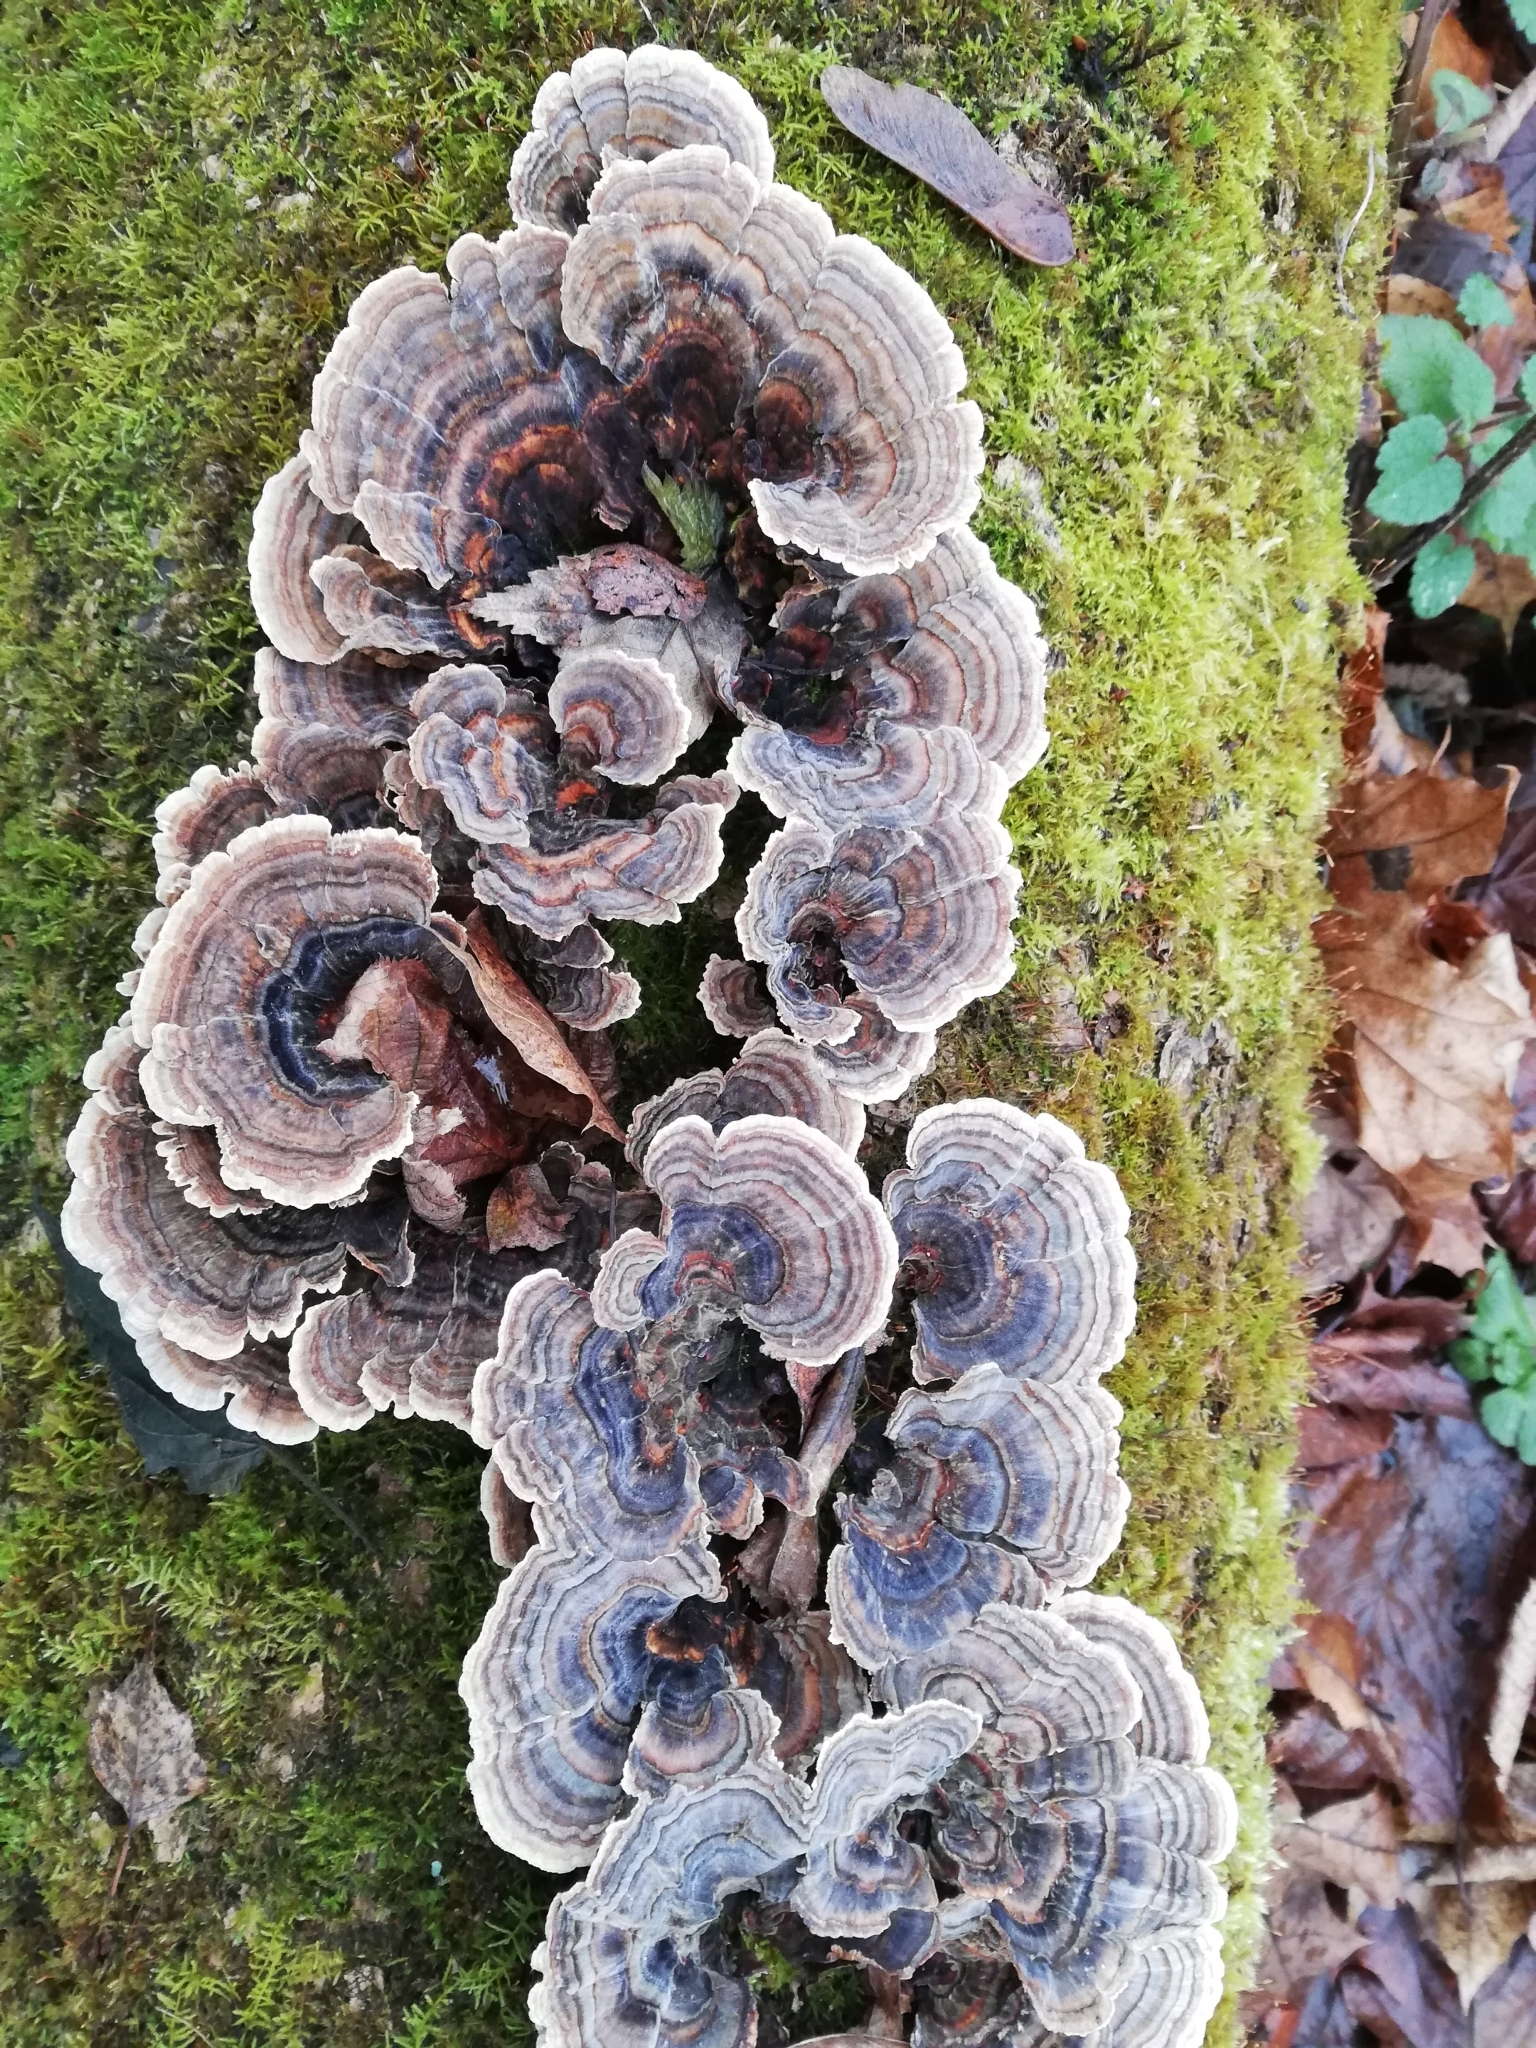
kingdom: Fungi
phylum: Basidiomycota
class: Agaricomycetes
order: Polyporales
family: Polyporaceae
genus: Trametes
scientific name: Trametes versicolor
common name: Turkeytail
